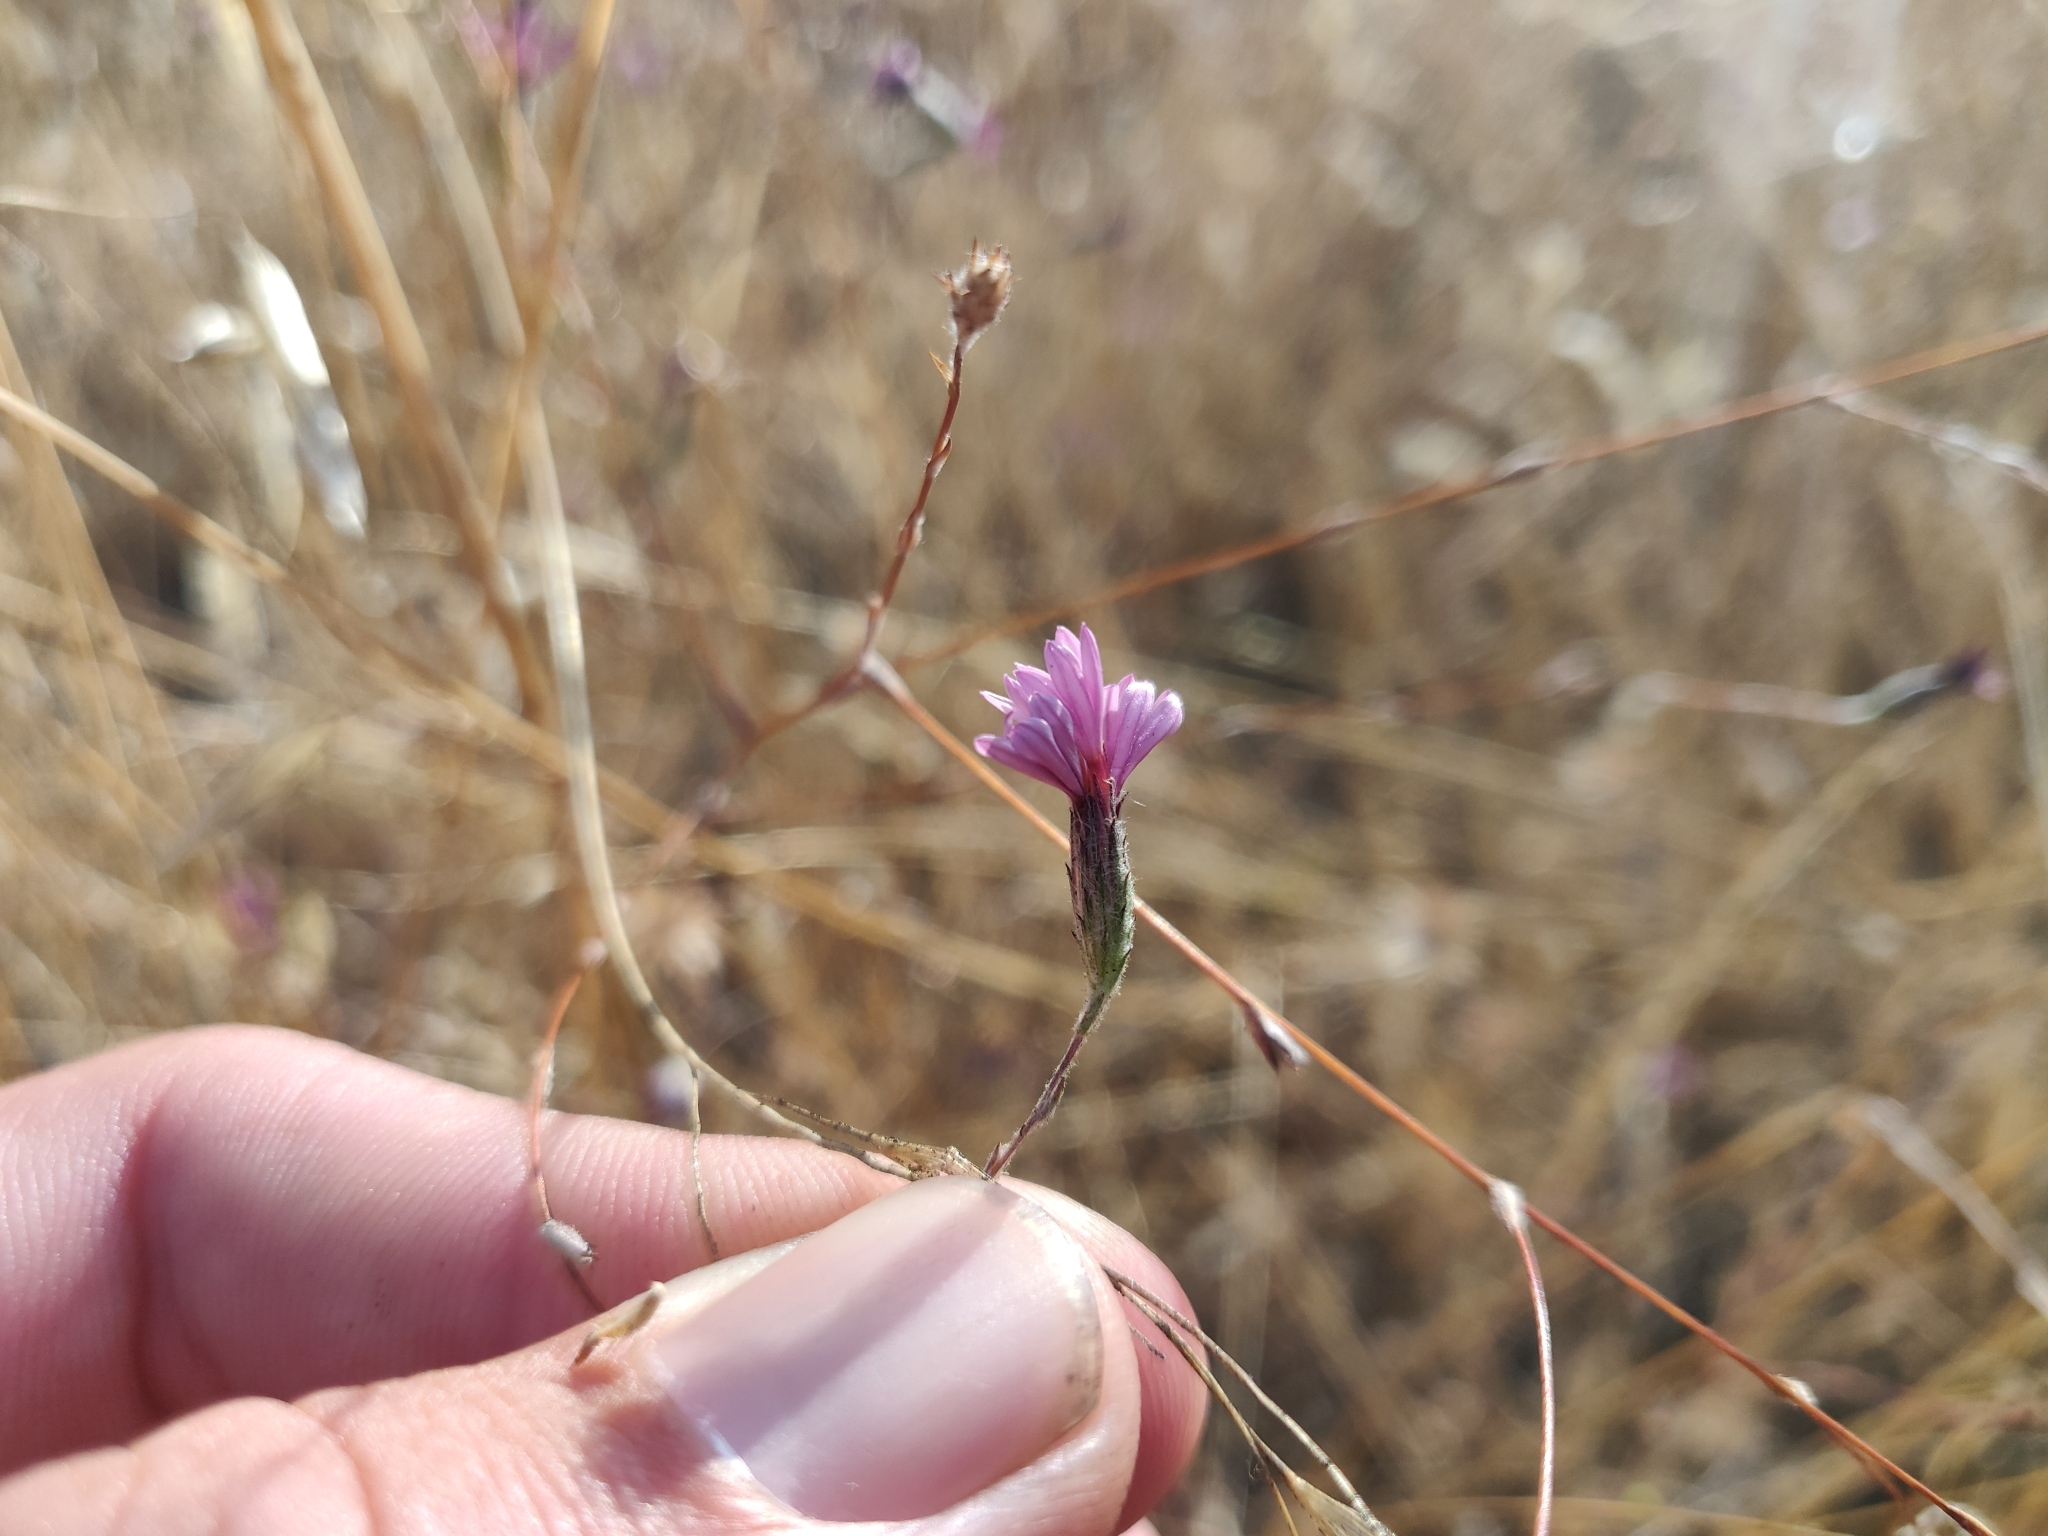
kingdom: Plantae
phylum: Tracheophyta
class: Magnoliopsida
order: Asterales
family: Asteraceae
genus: Lessingia
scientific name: Lessingia hololeuca
